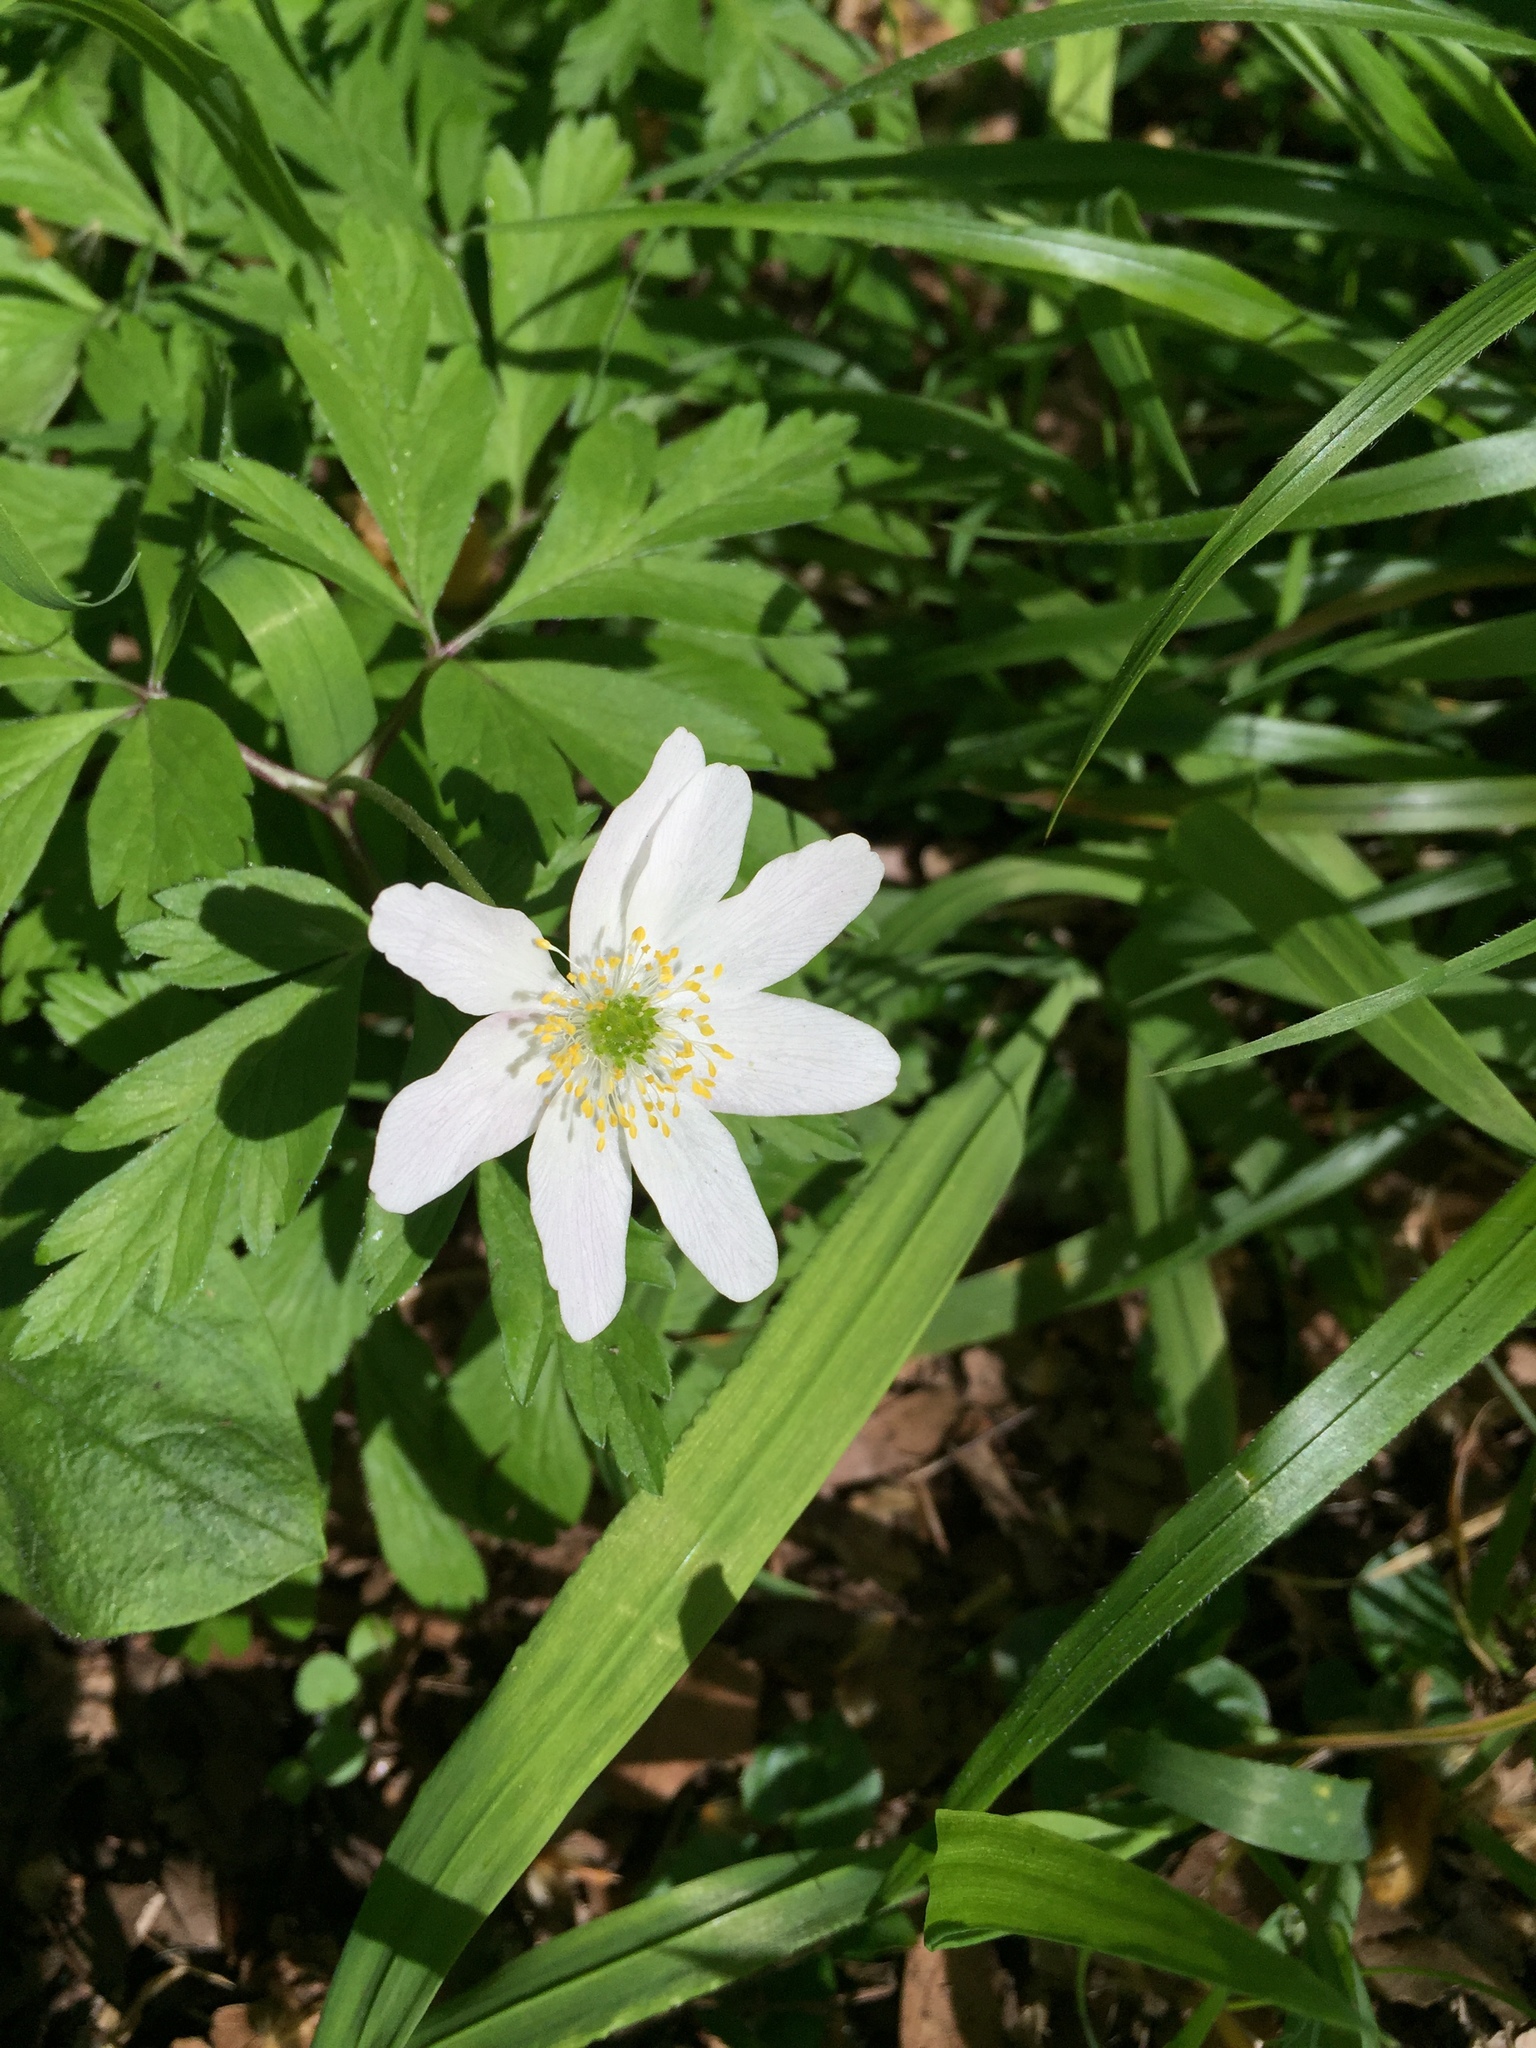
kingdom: Plantae
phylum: Tracheophyta
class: Magnoliopsida
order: Ranunculales
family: Ranunculaceae
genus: Anemone
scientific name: Anemone nemorosa
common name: Wood anemone
